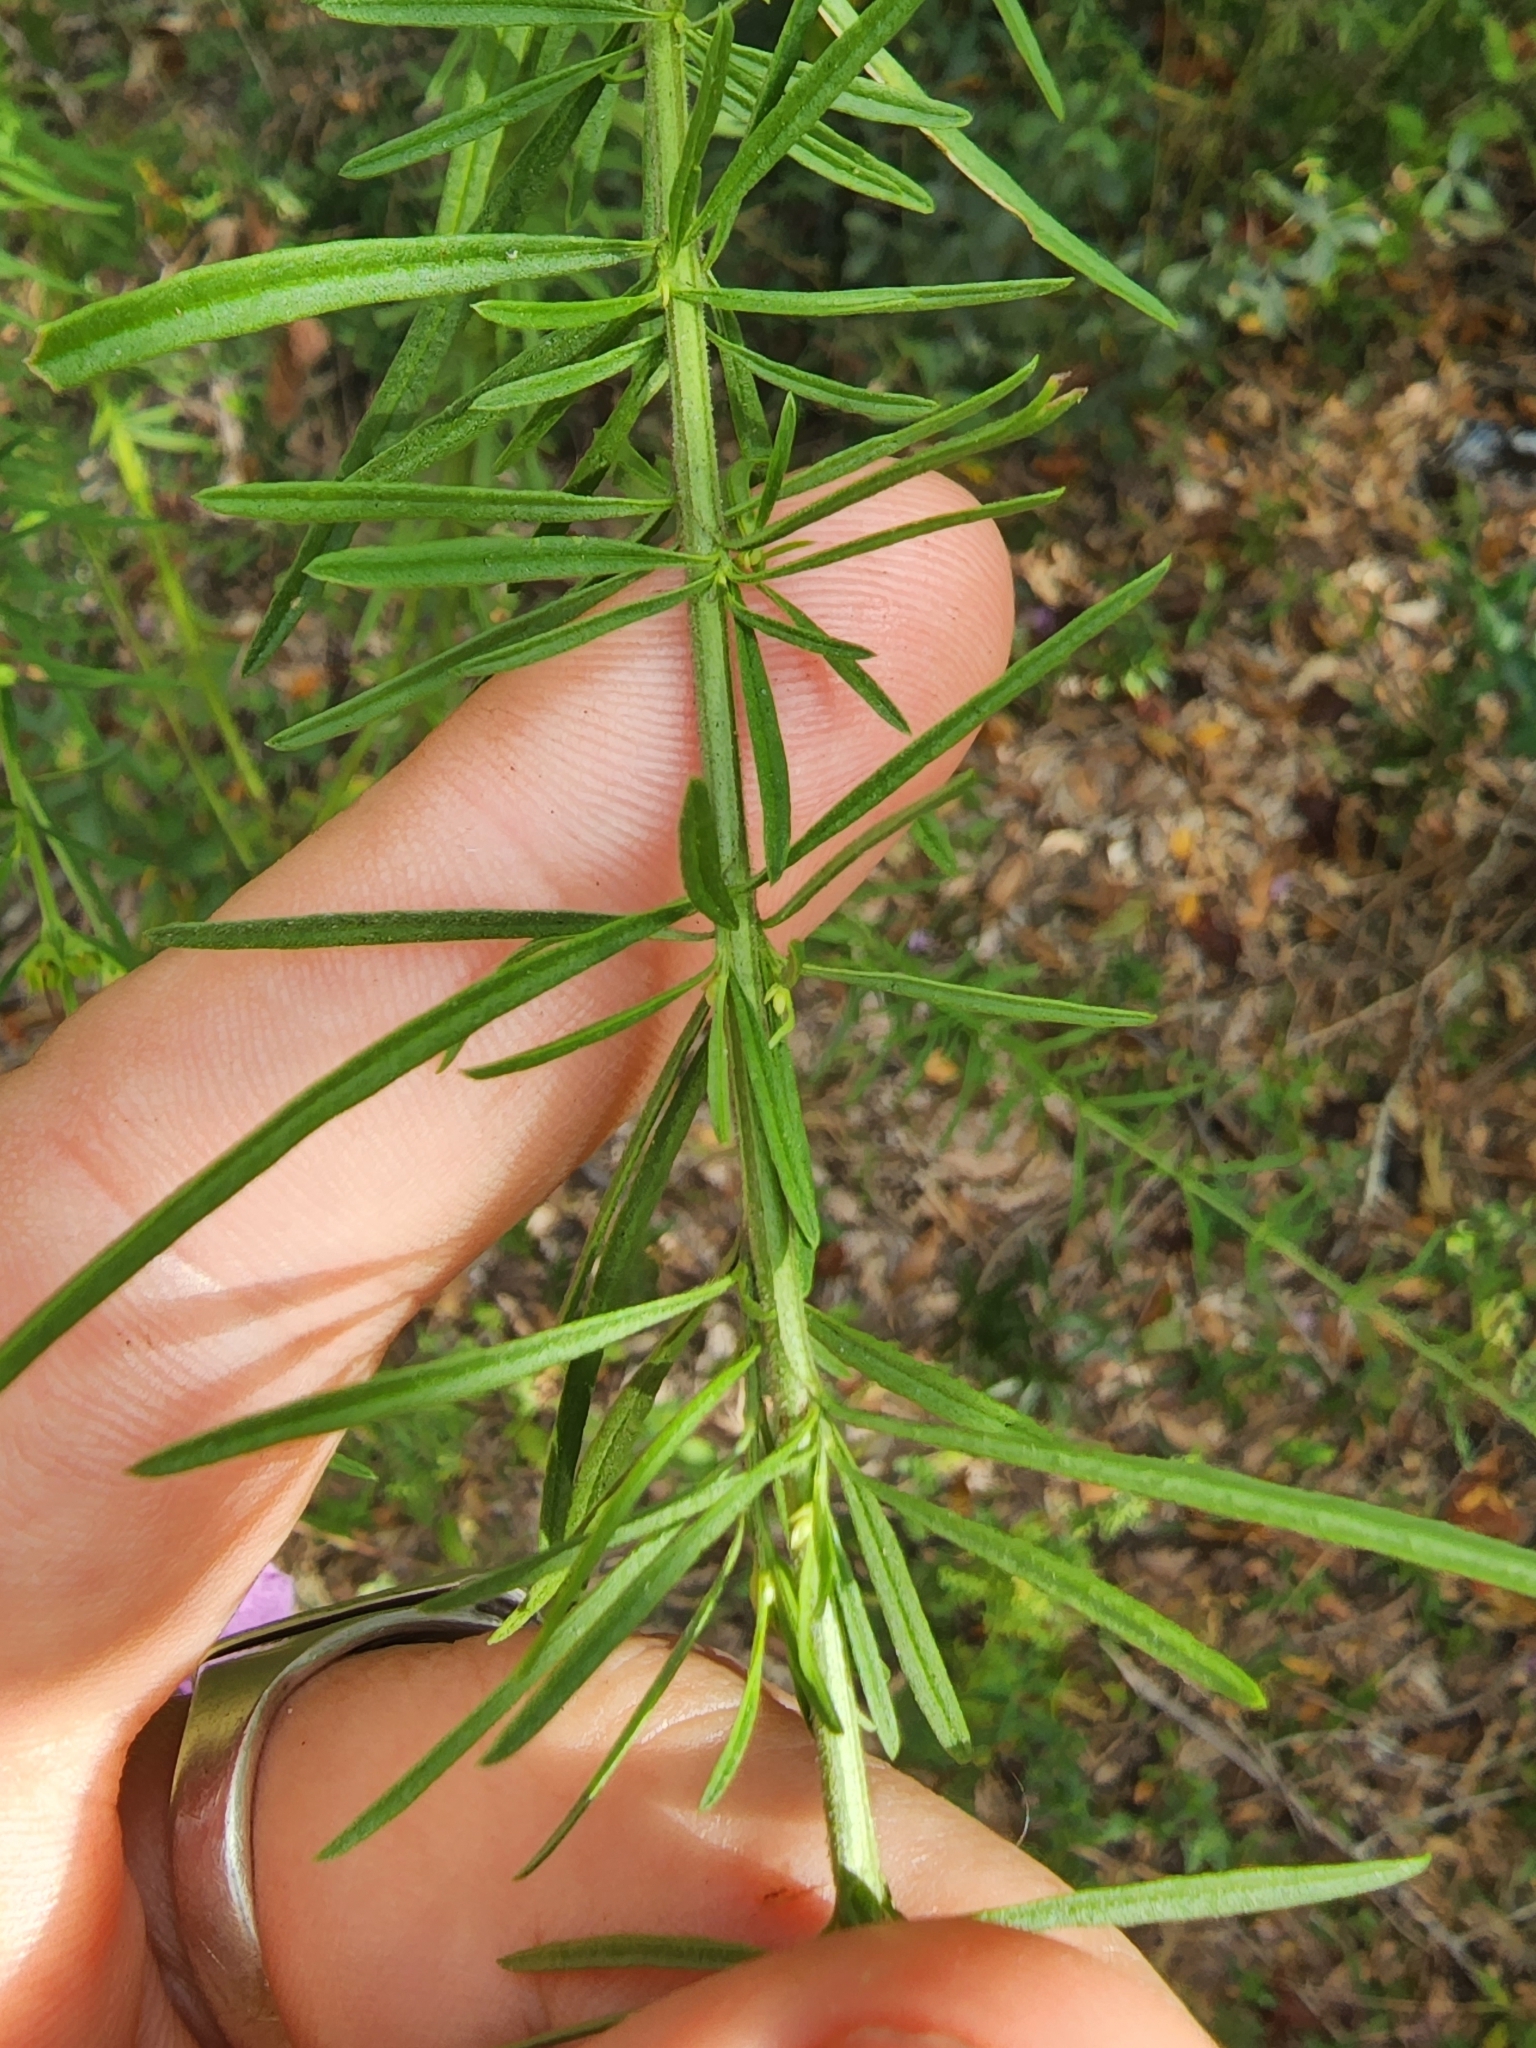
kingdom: Plantae
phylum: Tracheophyta
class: Magnoliopsida
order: Lamiales
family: Orobanchaceae
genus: Agalinis
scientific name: Agalinis fasciculata
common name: Beach false foxglove
